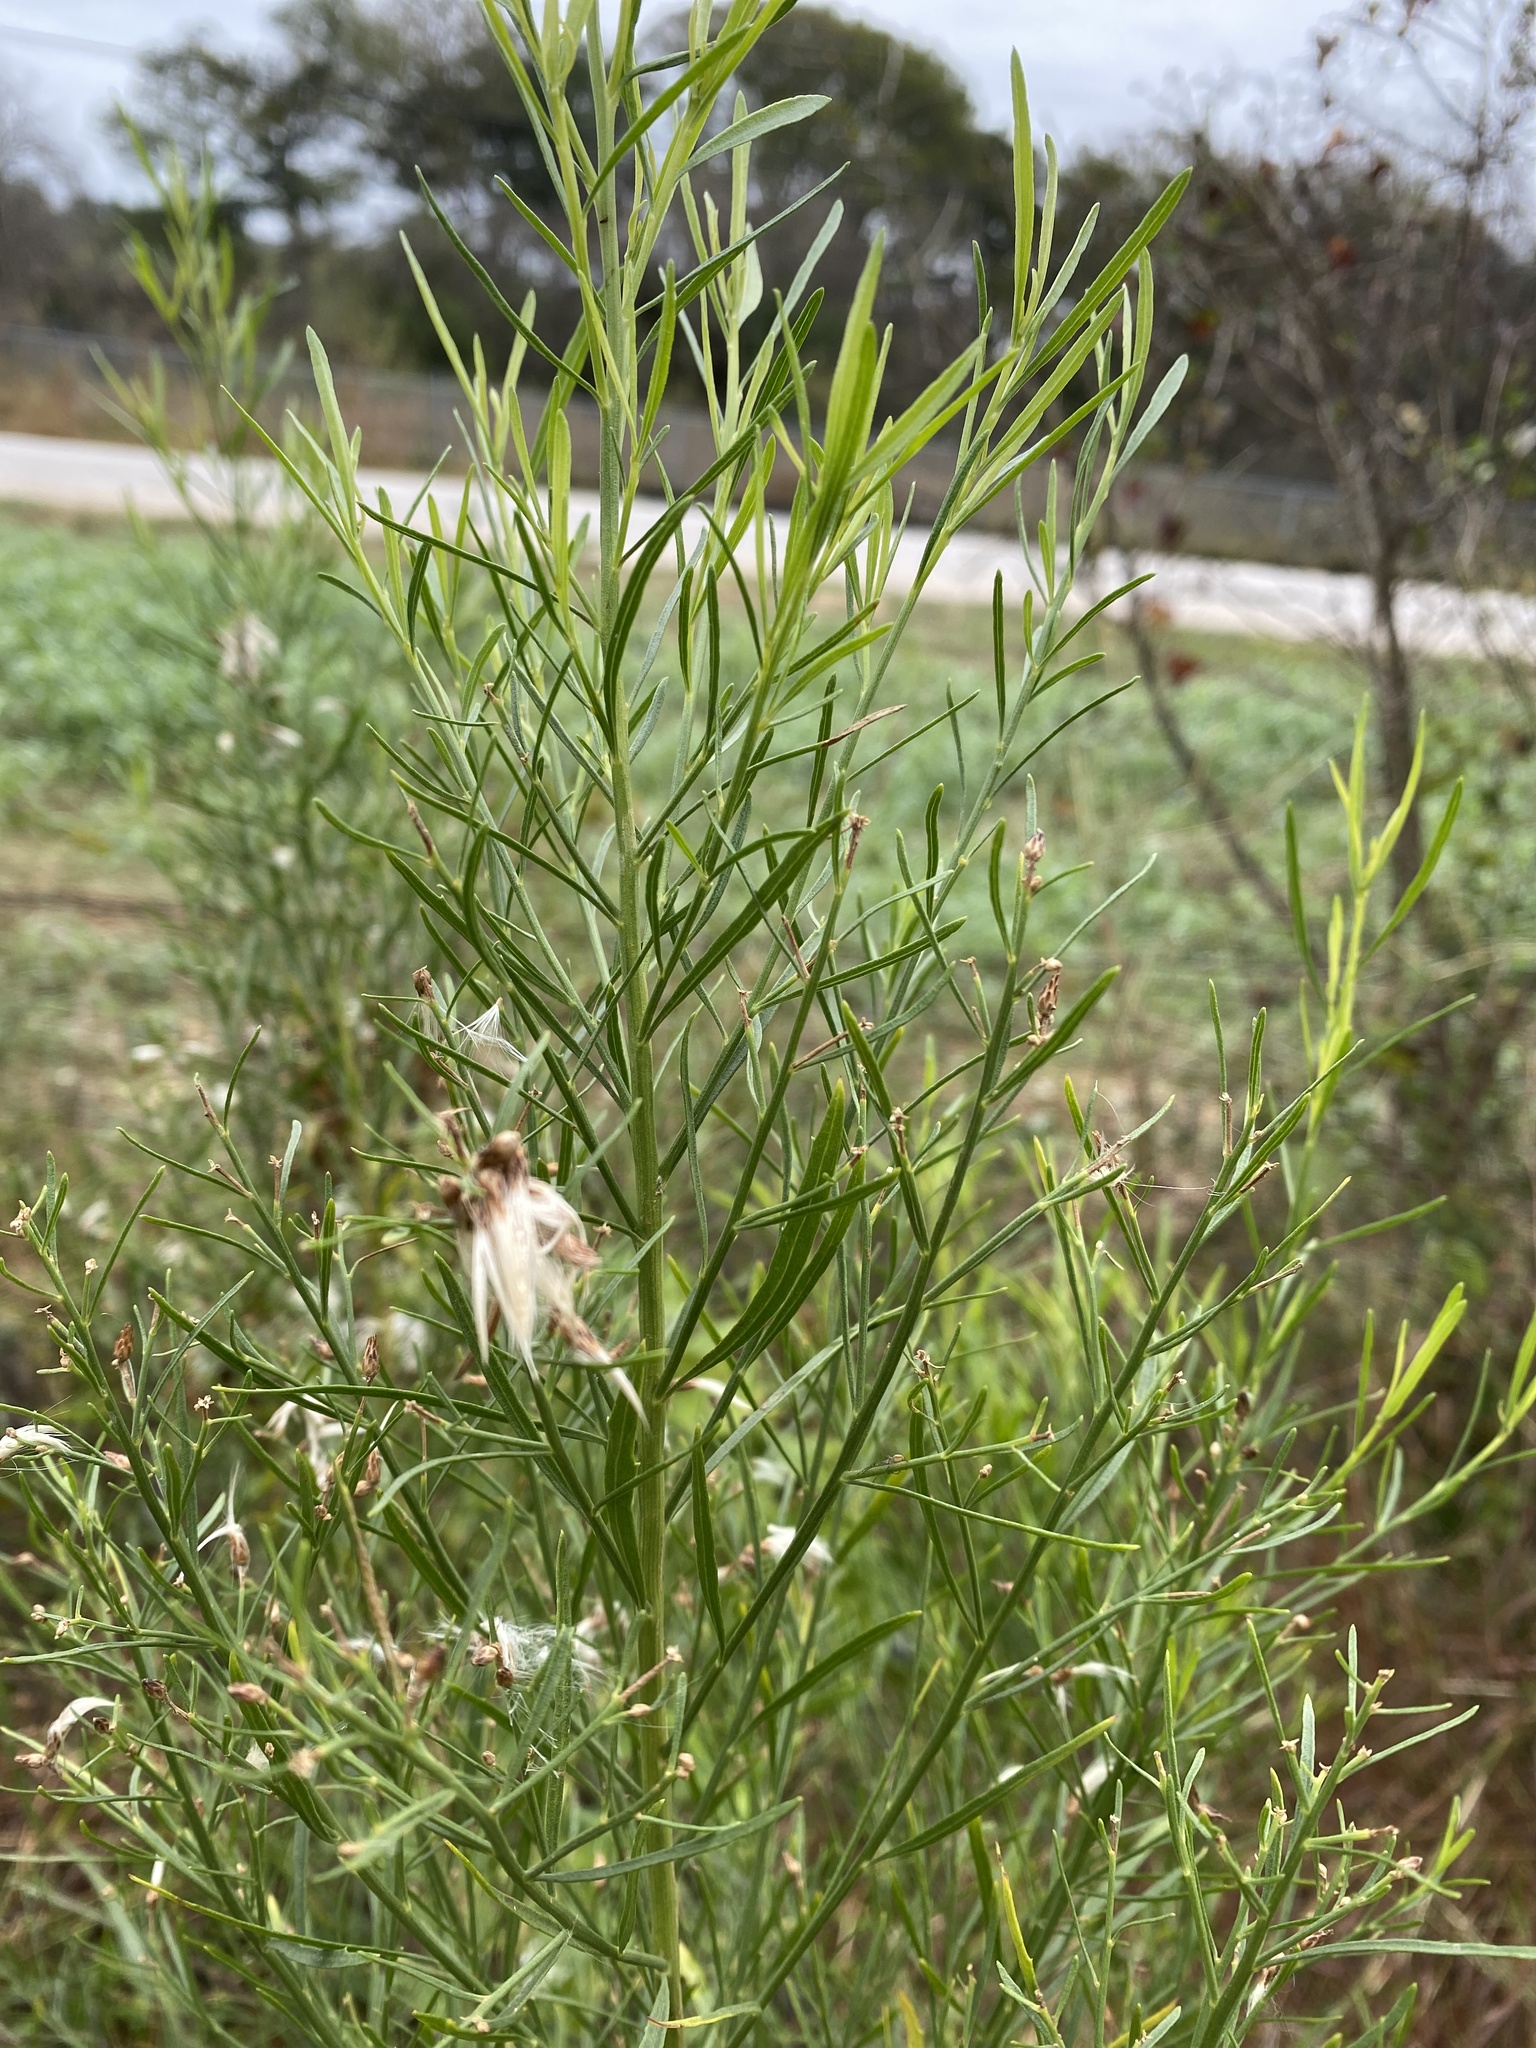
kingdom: Plantae
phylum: Tracheophyta
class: Magnoliopsida
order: Asterales
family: Asteraceae
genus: Baccharis
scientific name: Baccharis neglecta
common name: Roosevelt-weed
